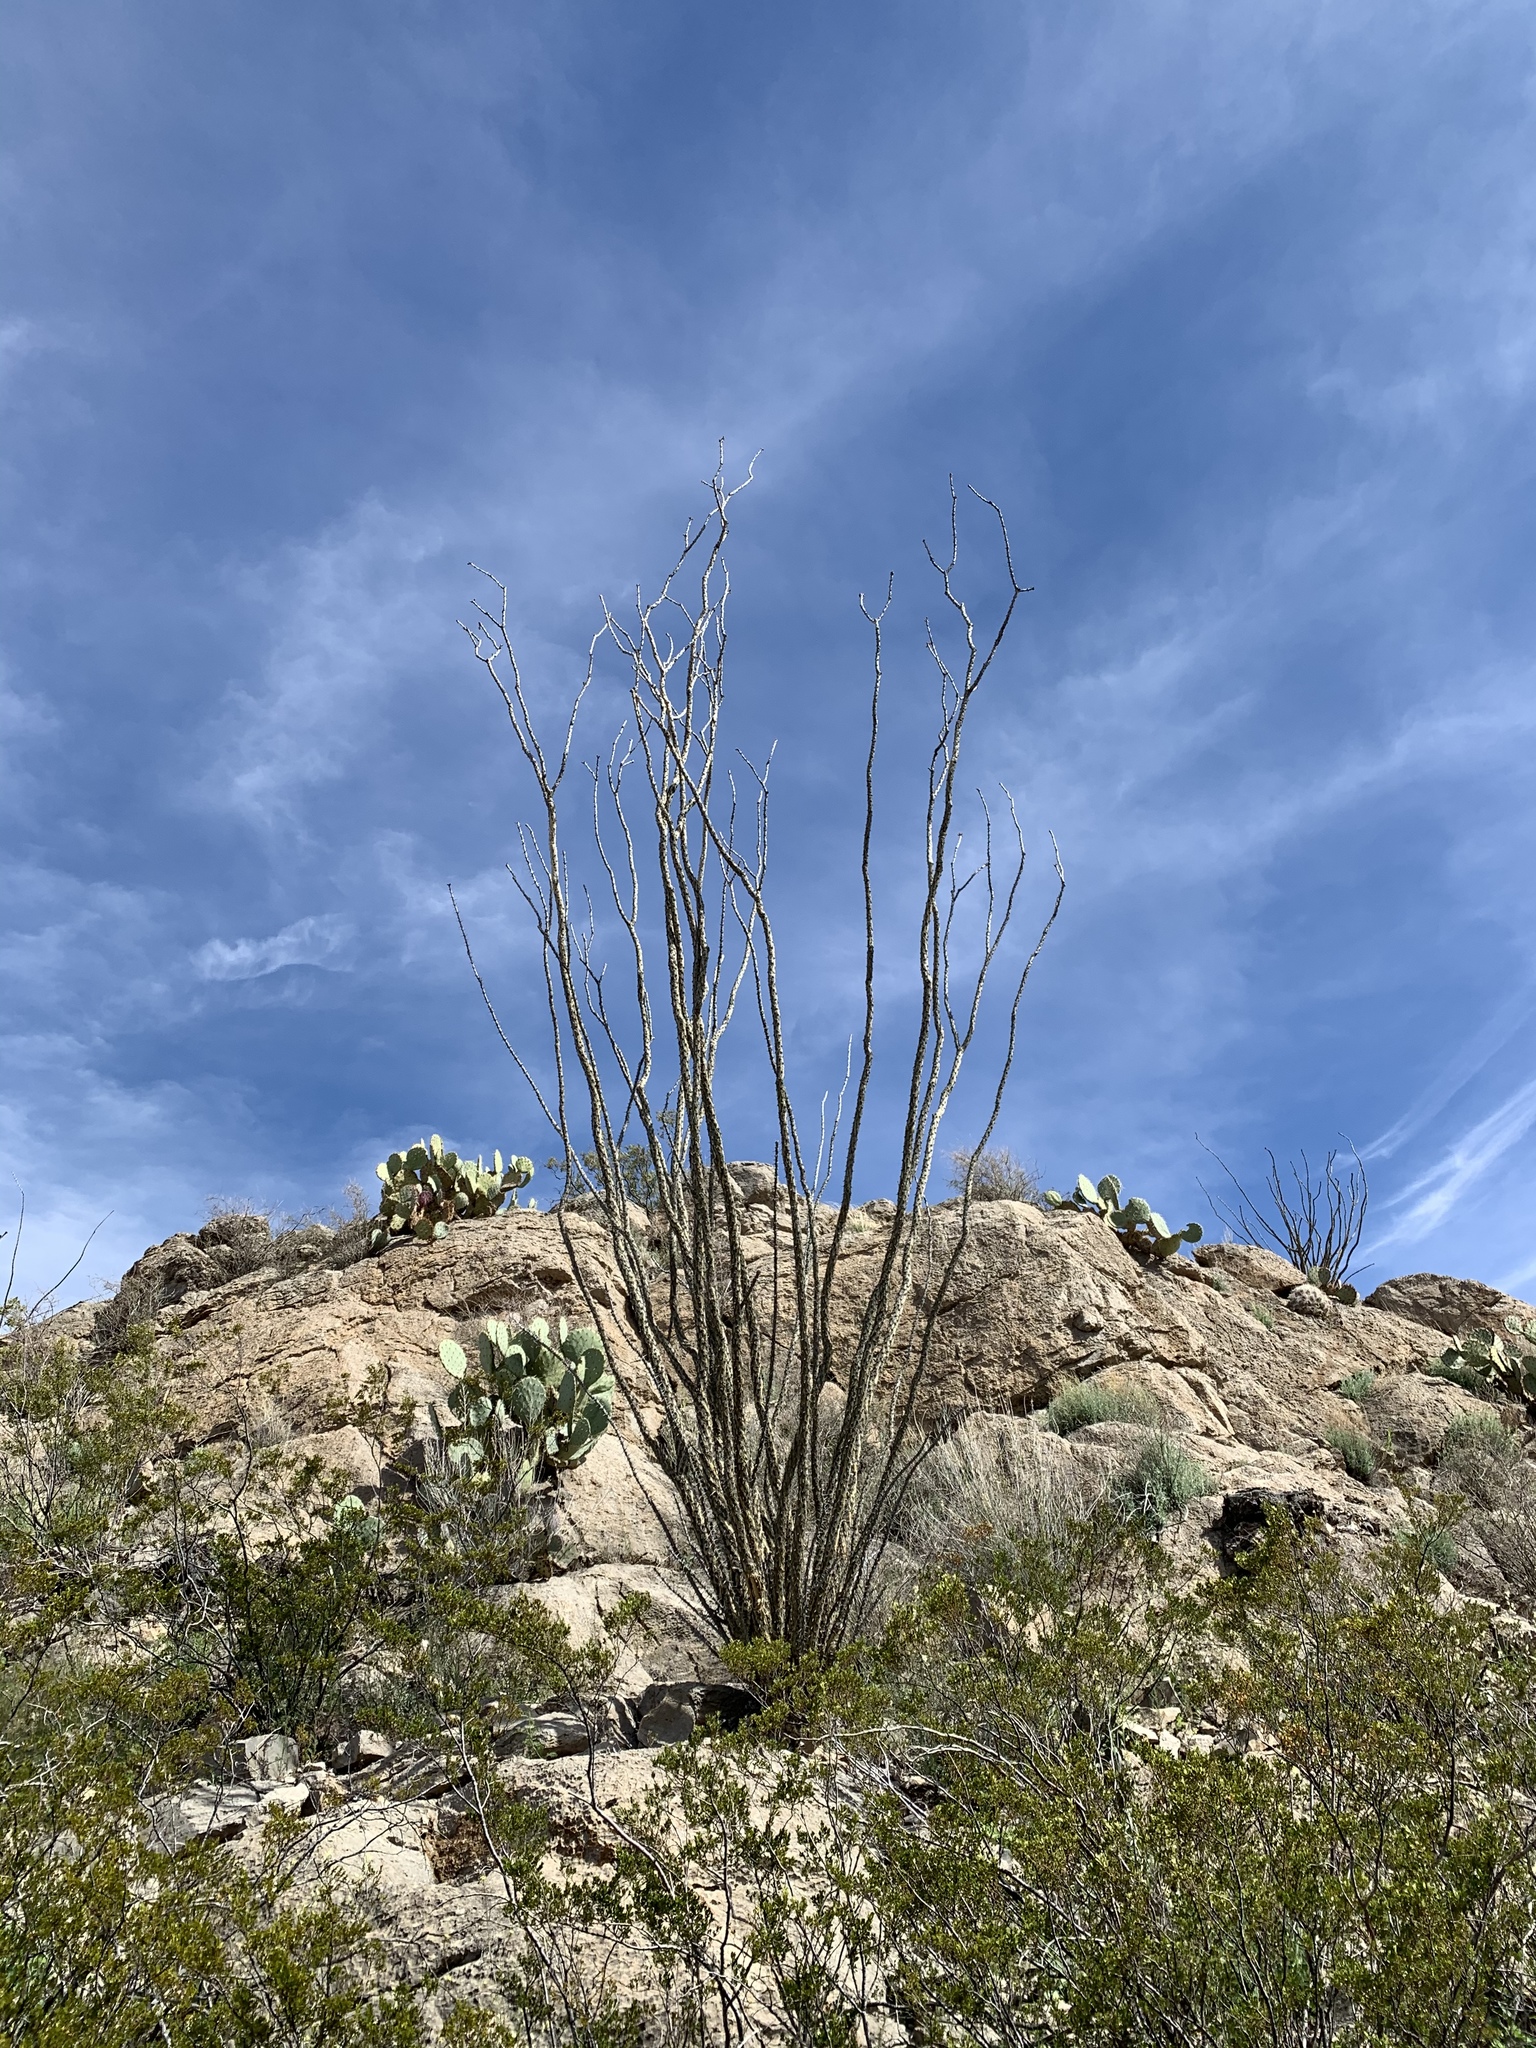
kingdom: Plantae
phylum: Tracheophyta
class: Magnoliopsida
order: Ericales
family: Fouquieriaceae
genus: Fouquieria
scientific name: Fouquieria splendens
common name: Vine-cactus
